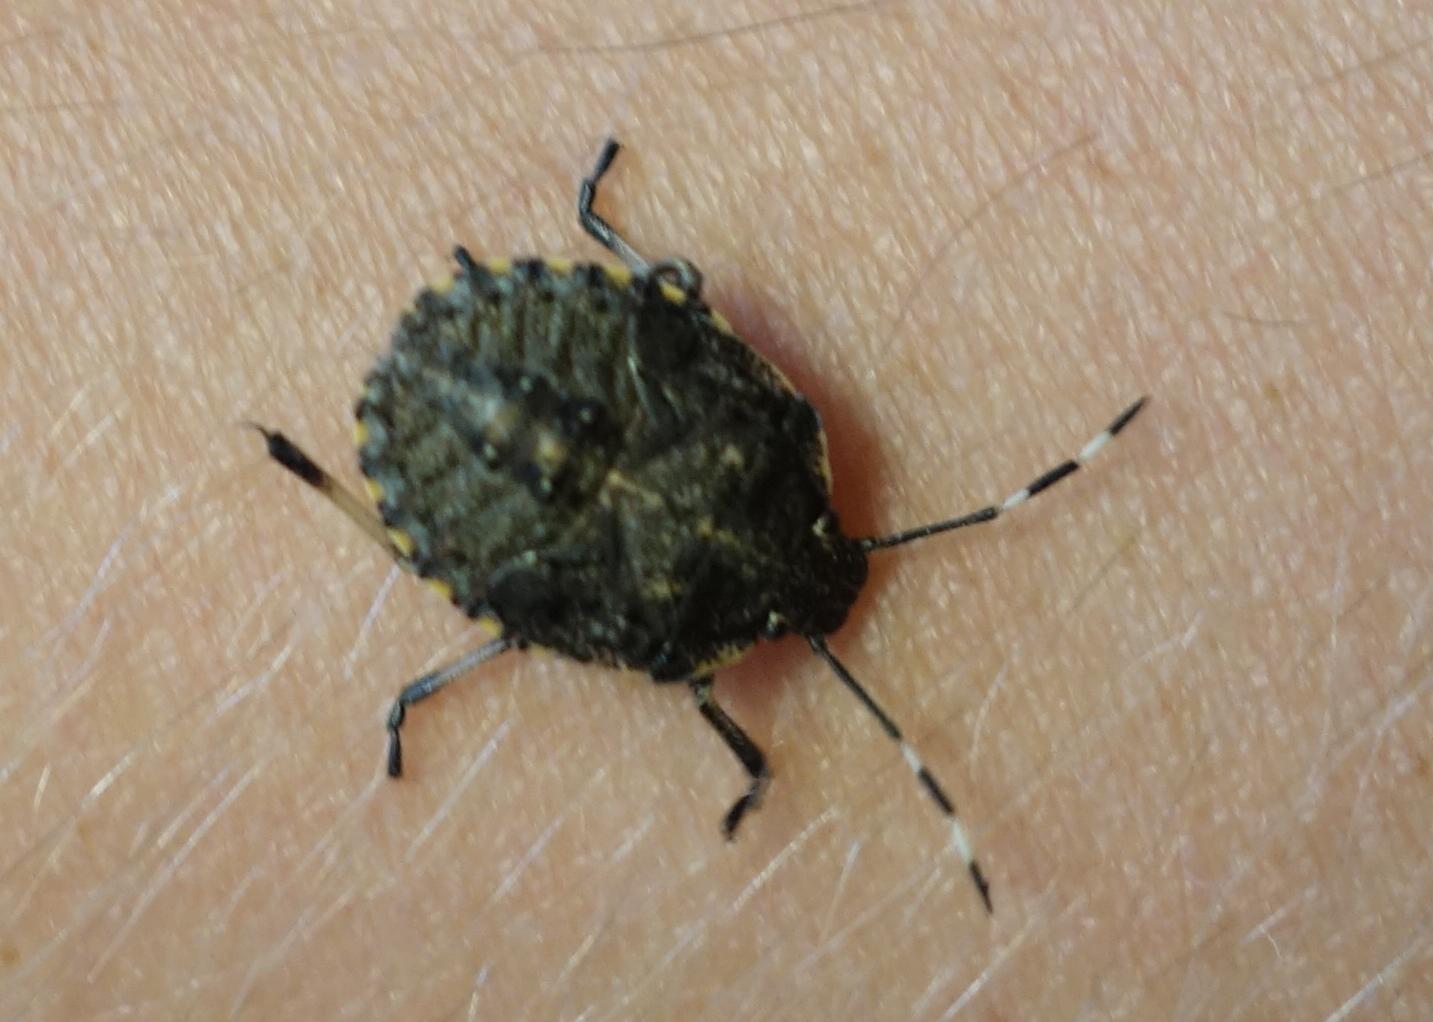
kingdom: Animalia
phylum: Arthropoda
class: Insecta
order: Hemiptera
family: Pentatomidae
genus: Rhaphigaster
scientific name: Rhaphigaster nebulosa
